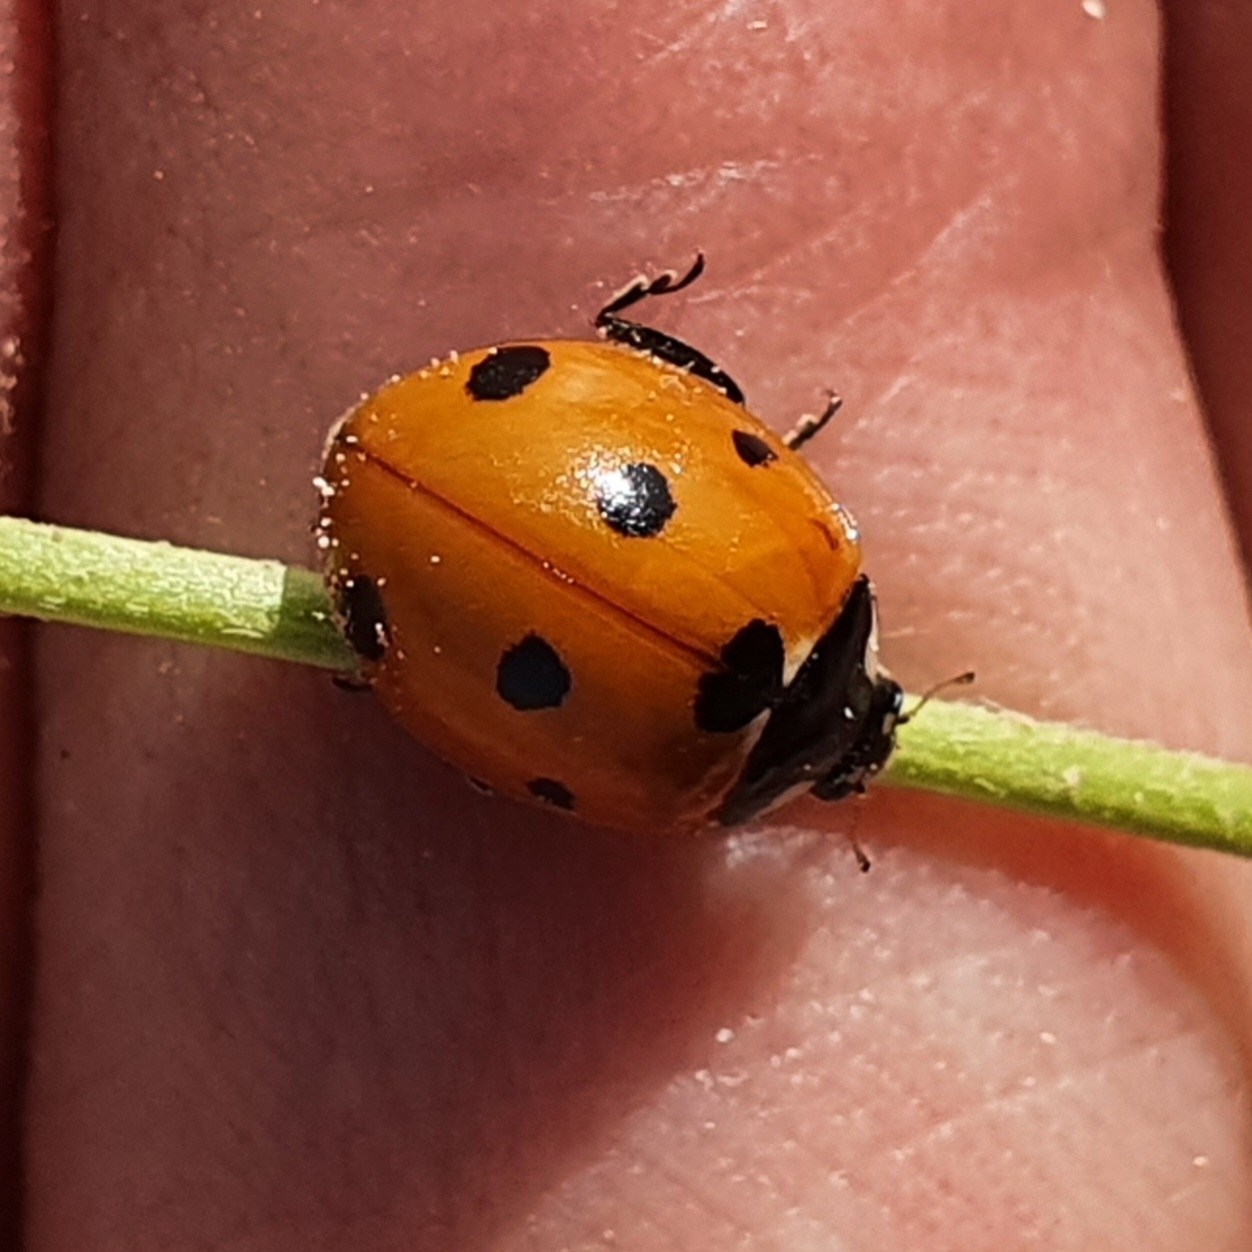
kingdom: Animalia
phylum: Arthropoda
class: Insecta
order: Coleoptera
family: Coccinellidae
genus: Coccinella
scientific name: Coccinella algerica
